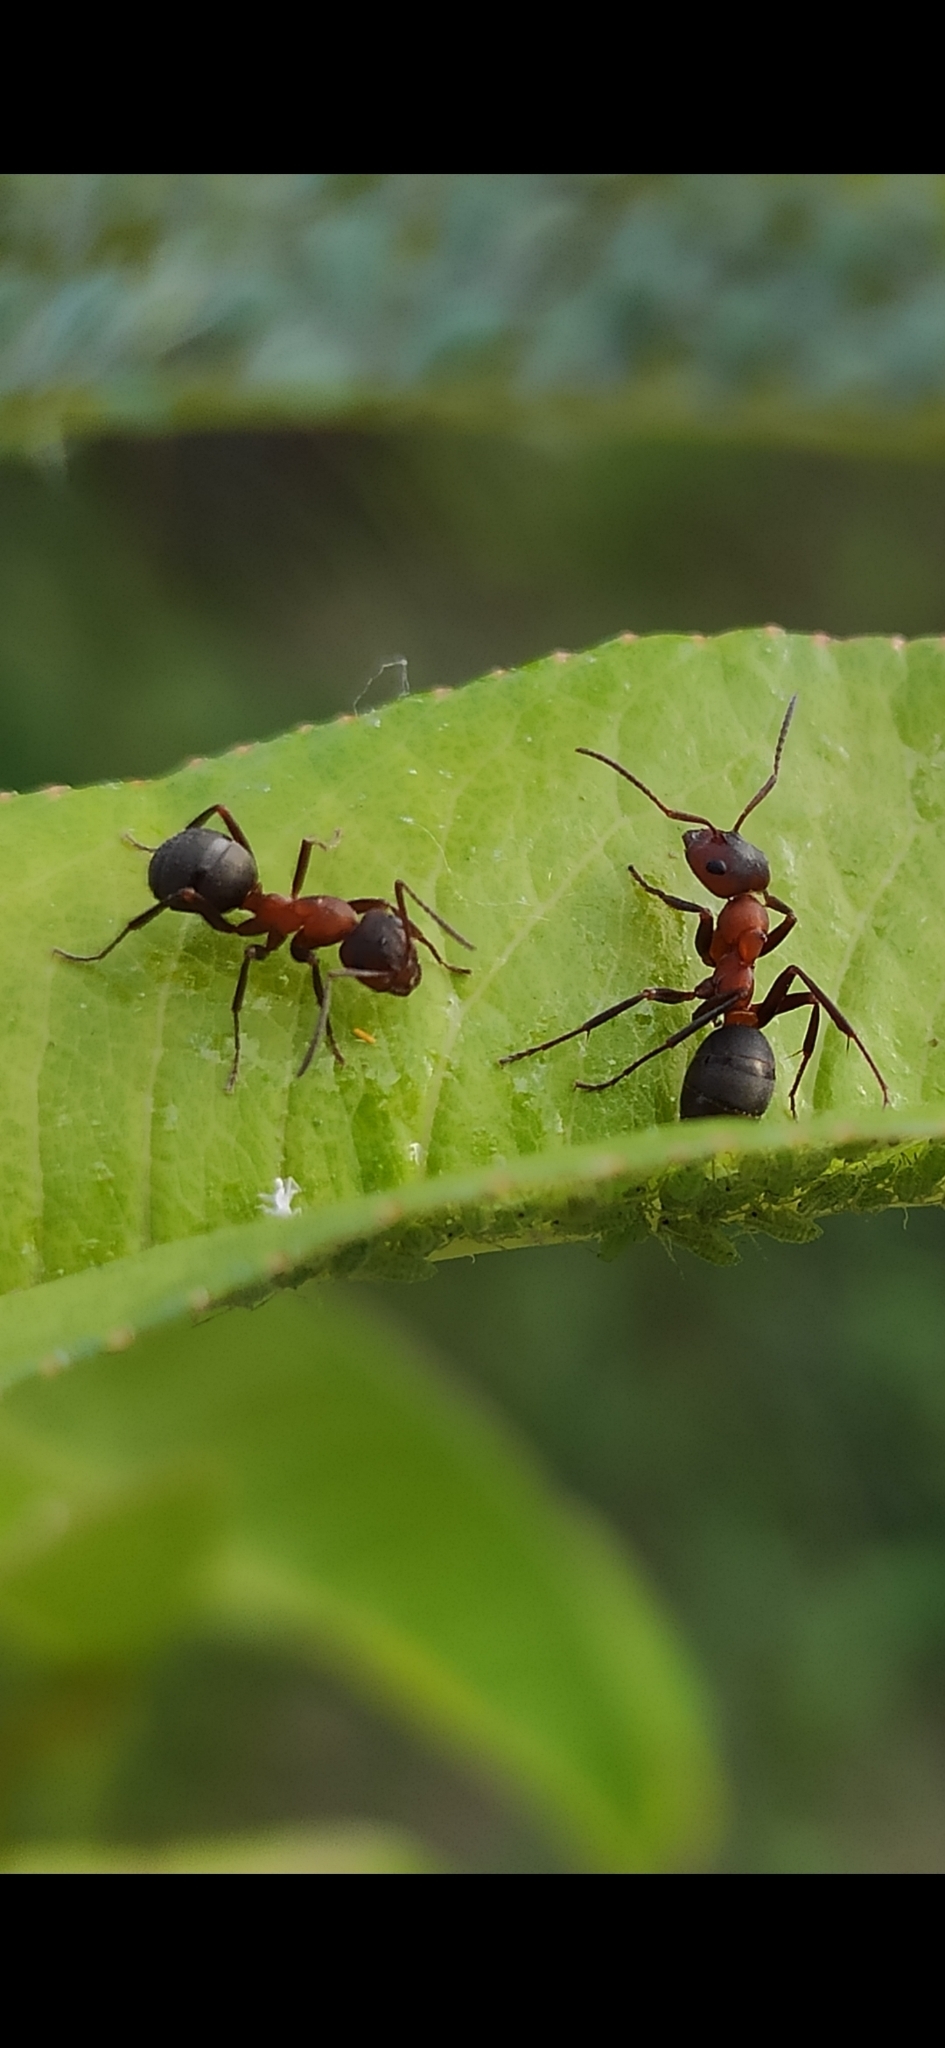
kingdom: Animalia
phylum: Arthropoda
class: Insecta
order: Hymenoptera
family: Formicidae
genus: Formica
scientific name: Formica sanguinea
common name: Blood-red ant
